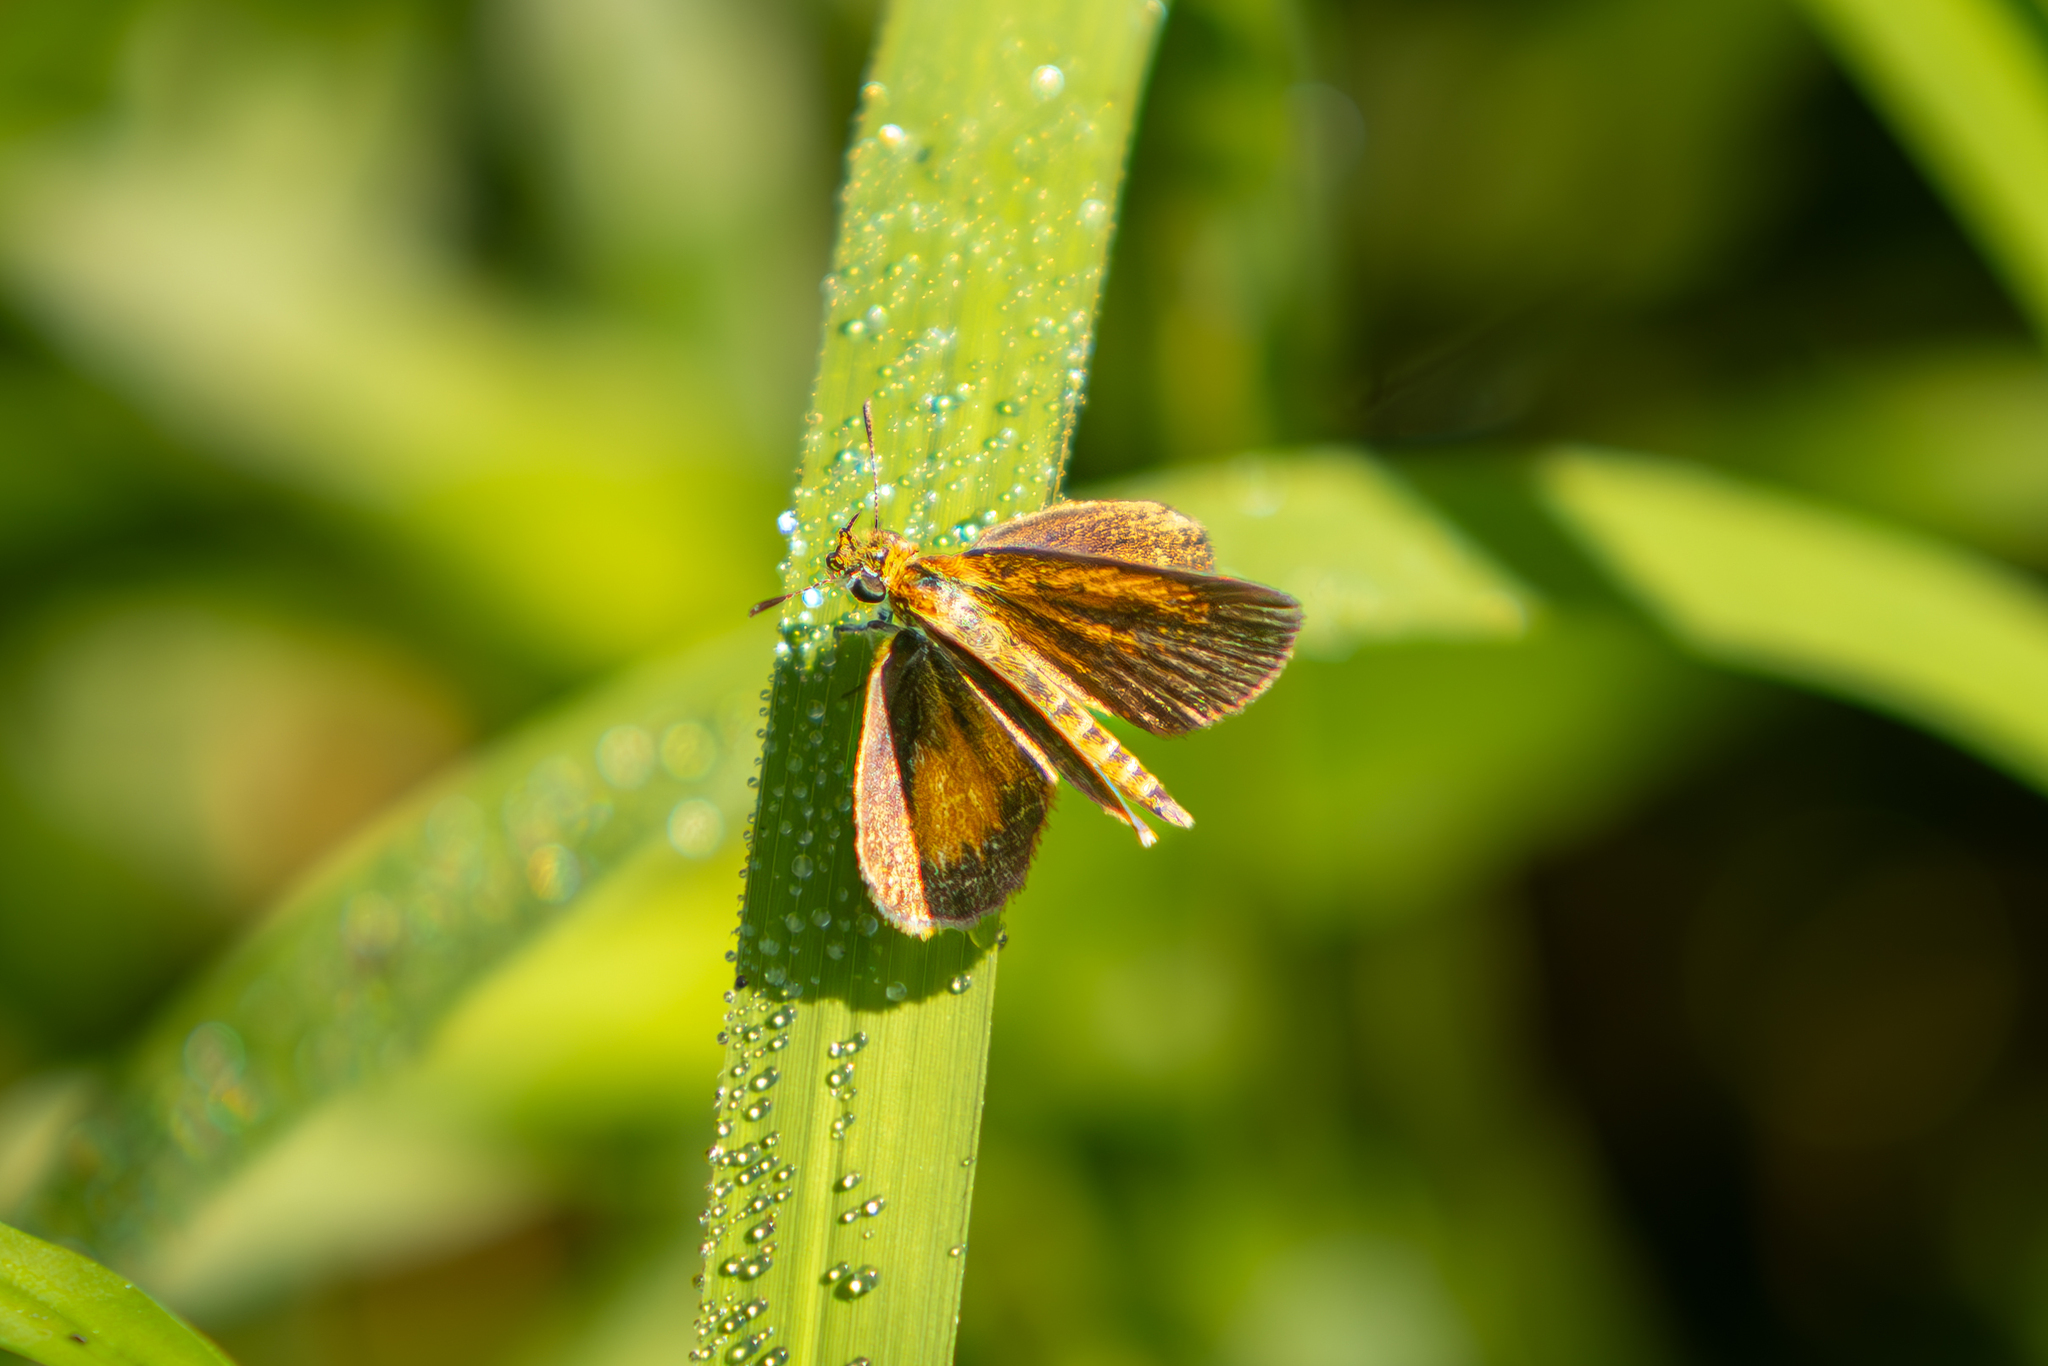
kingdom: Animalia
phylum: Arthropoda
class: Insecta
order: Lepidoptera
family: Hesperiidae
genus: Ancyloxypha
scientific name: Ancyloxypha numitor
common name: Least skipper
